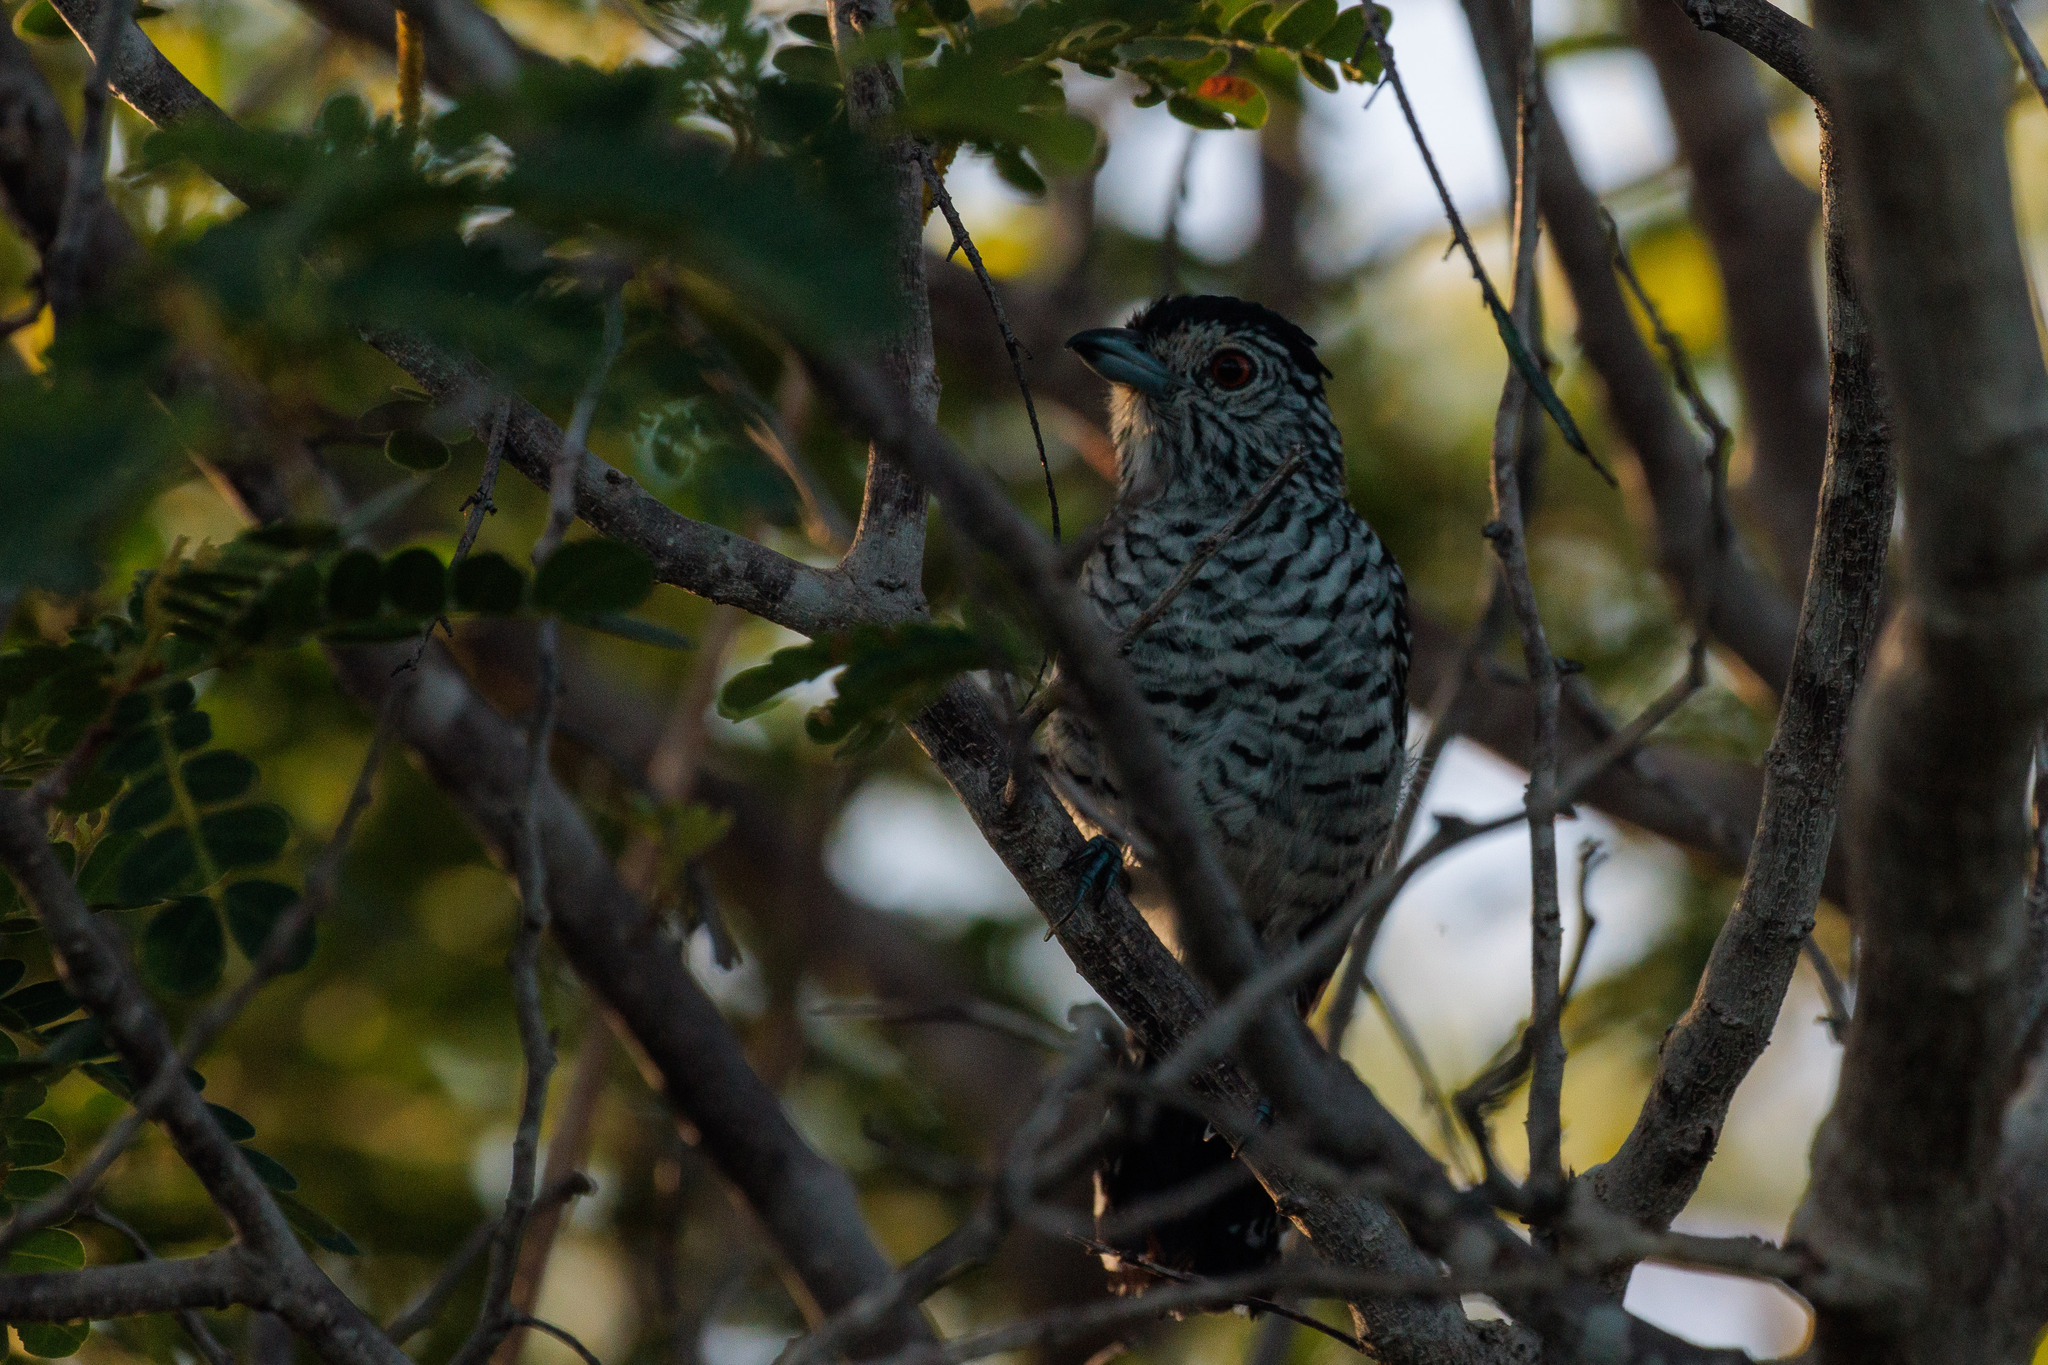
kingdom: Animalia
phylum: Chordata
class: Aves
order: Passeriformes
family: Thamnophilidae
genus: Thamnophilus
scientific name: Thamnophilus doliatus
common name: Barred antshrike
